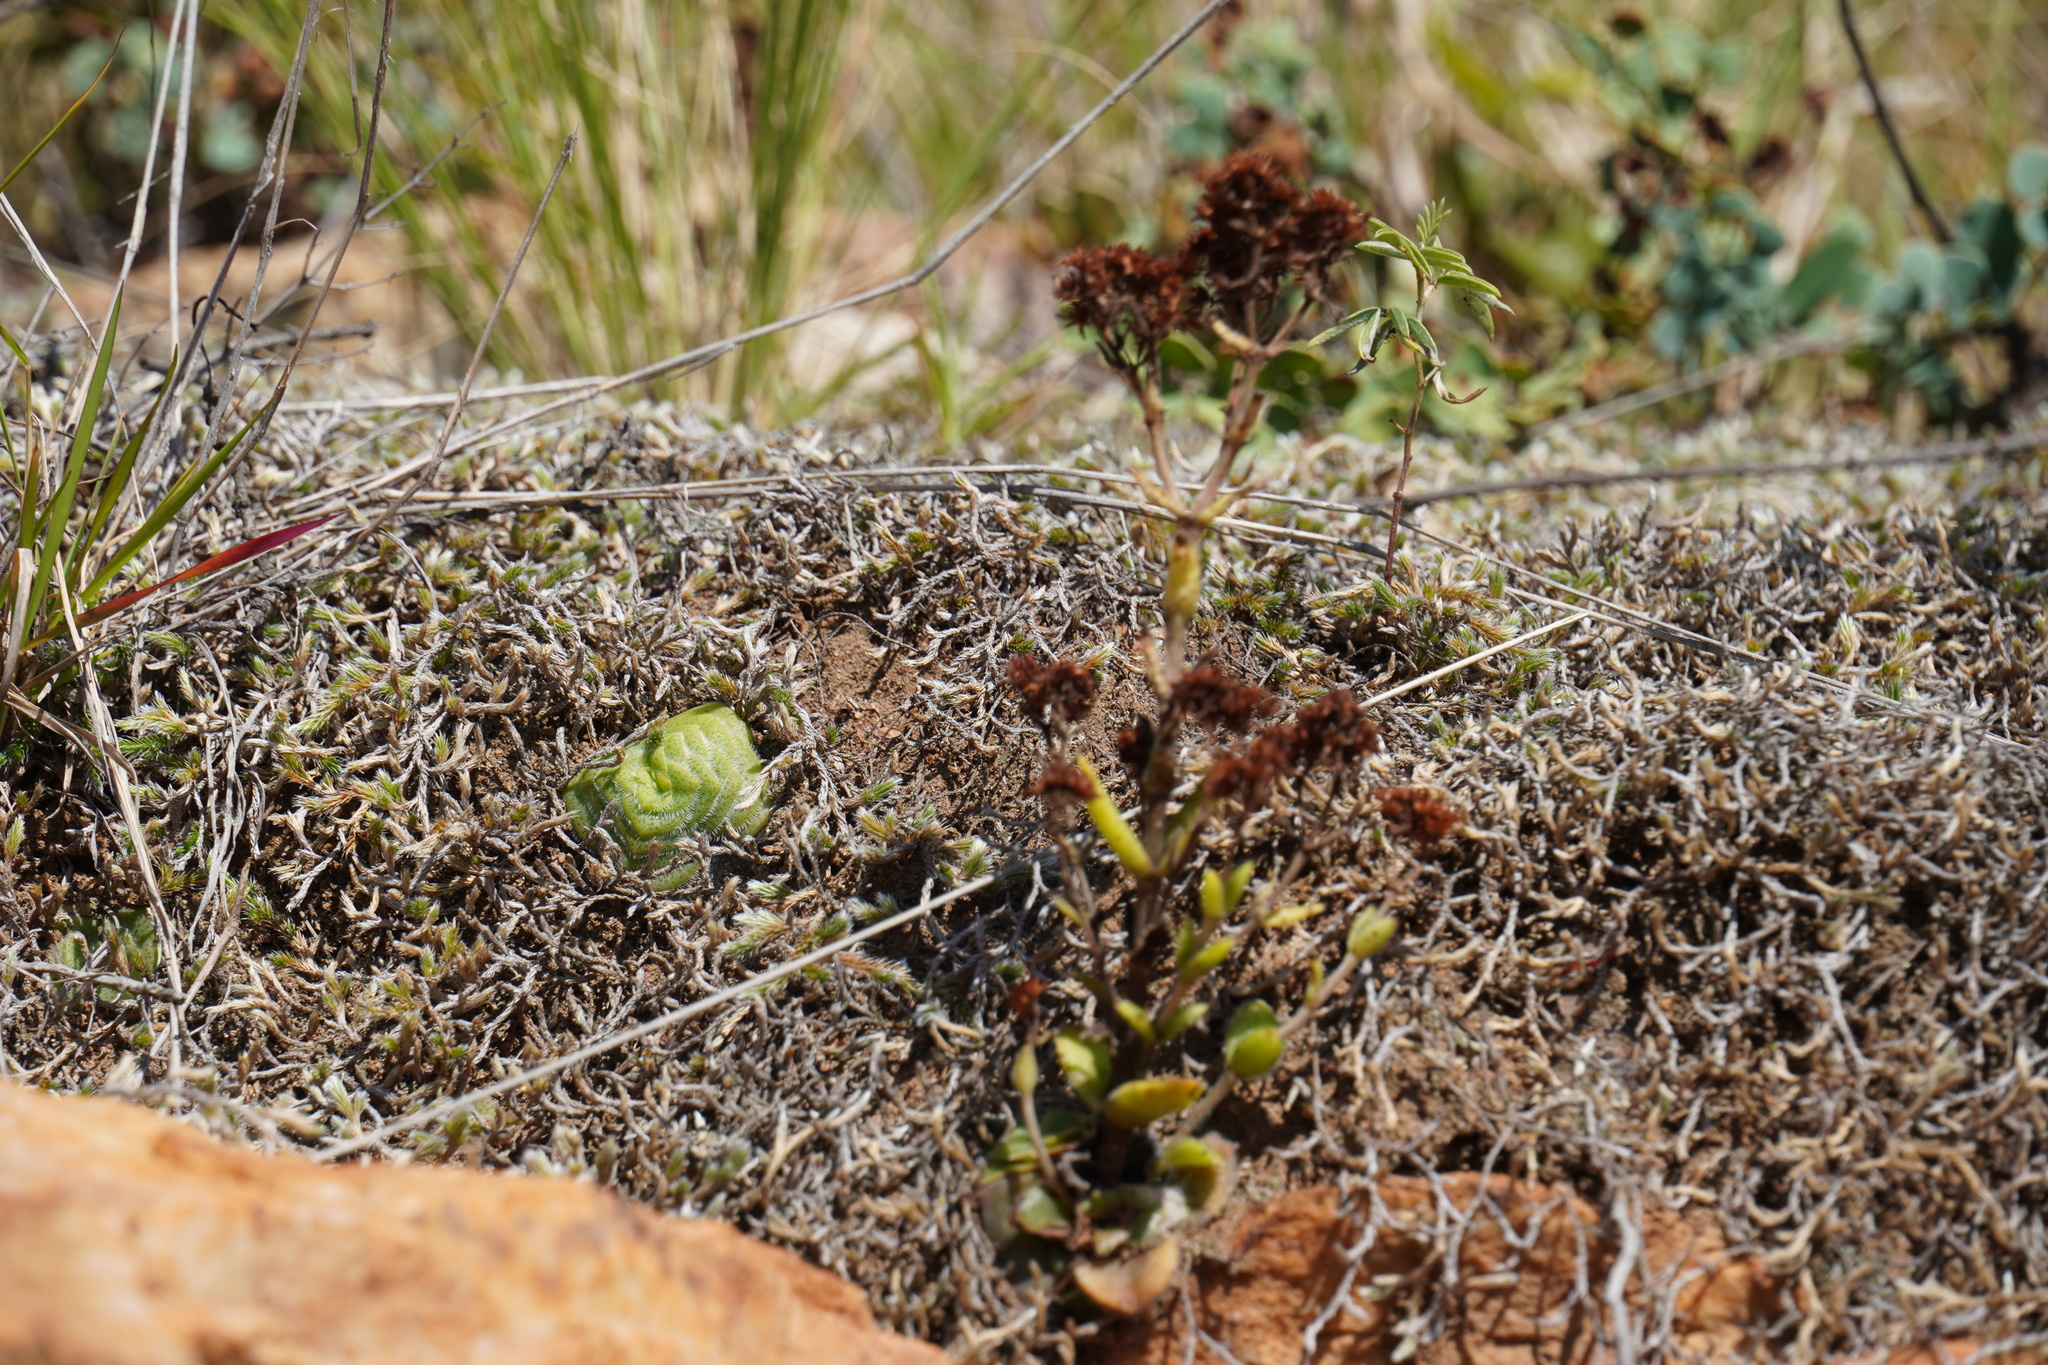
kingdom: Plantae
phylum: Tracheophyta
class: Magnoliopsida
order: Saxifragales
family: Crassulaceae
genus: Crassula
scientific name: Crassula setulosa
